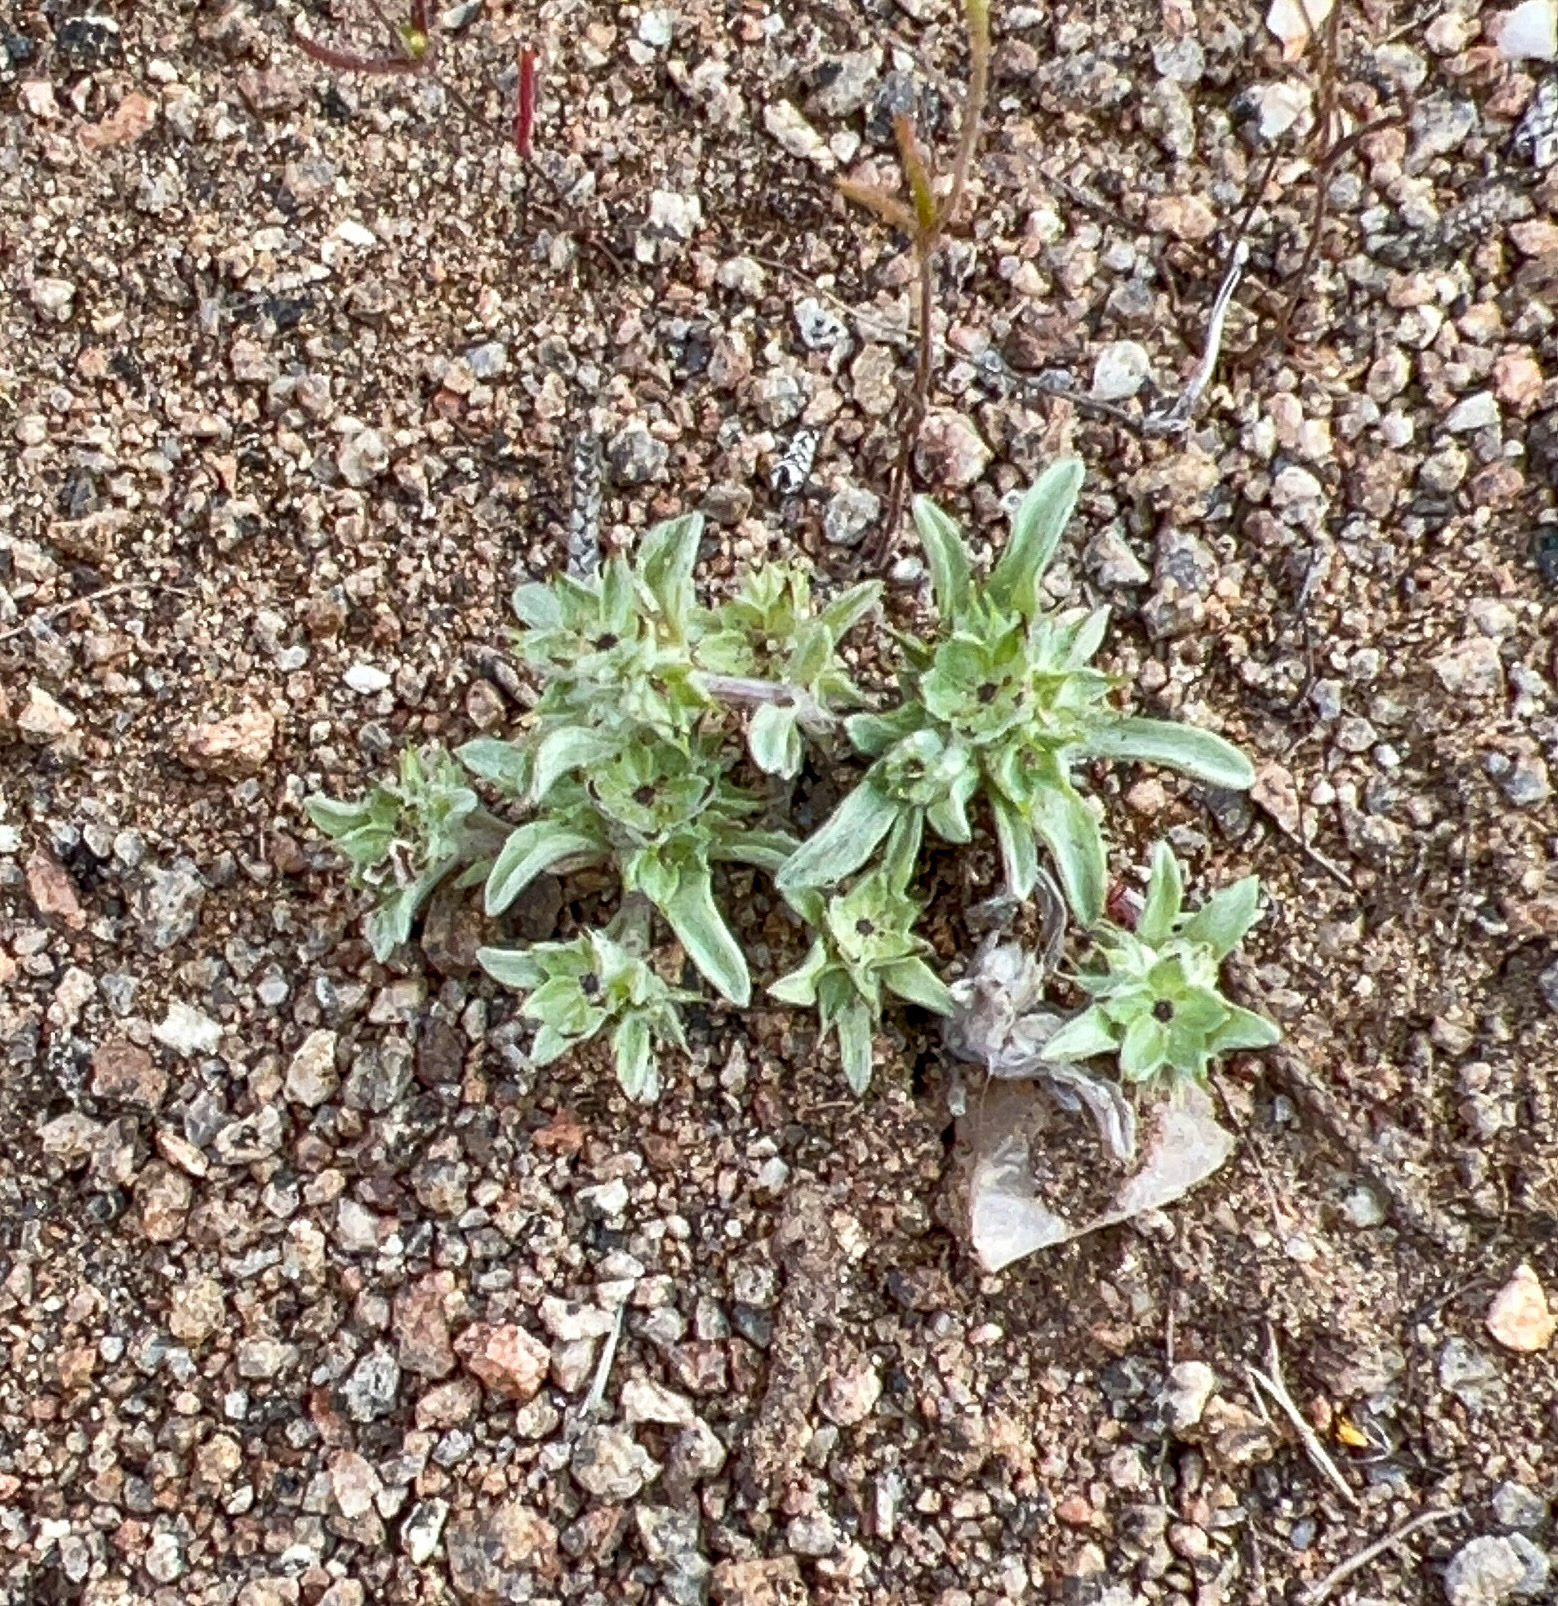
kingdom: Plantae
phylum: Tracheophyta
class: Magnoliopsida
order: Asterales
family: Asteraceae
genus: Ancistrocarphus
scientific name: Ancistrocarphus filagineus
